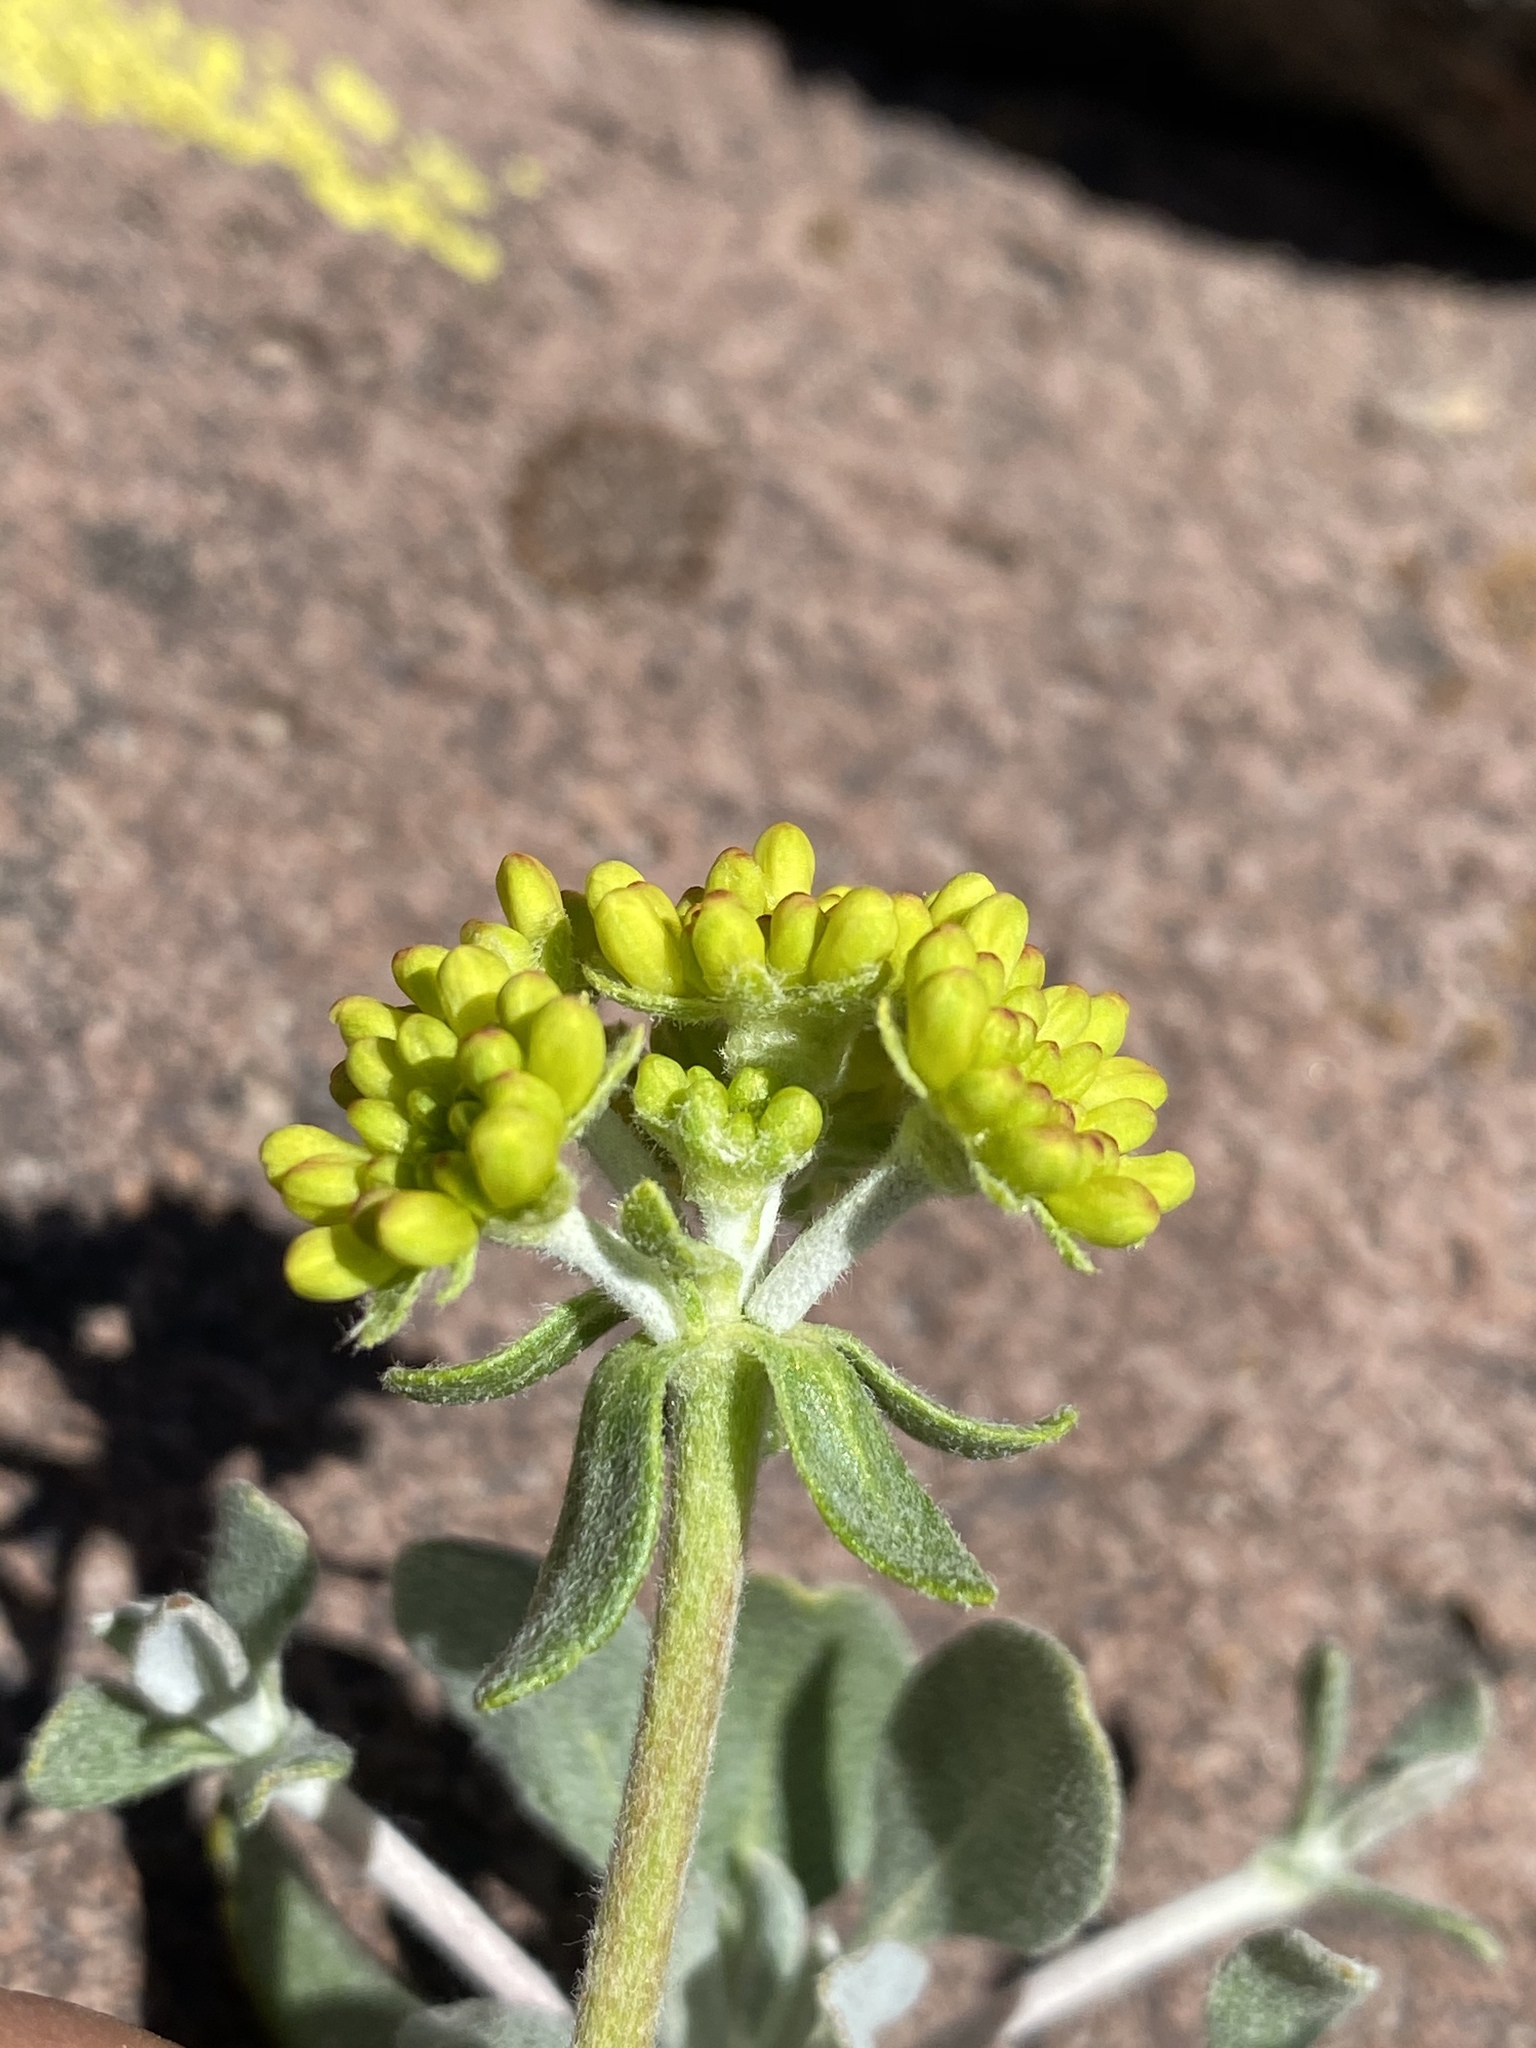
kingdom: Plantae
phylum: Tracheophyta
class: Magnoliopsida
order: Caryophyllales
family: Polygonaceae
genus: Eriogonum
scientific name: Eriogonum umbellatum
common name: Sulfur-buckwheat
